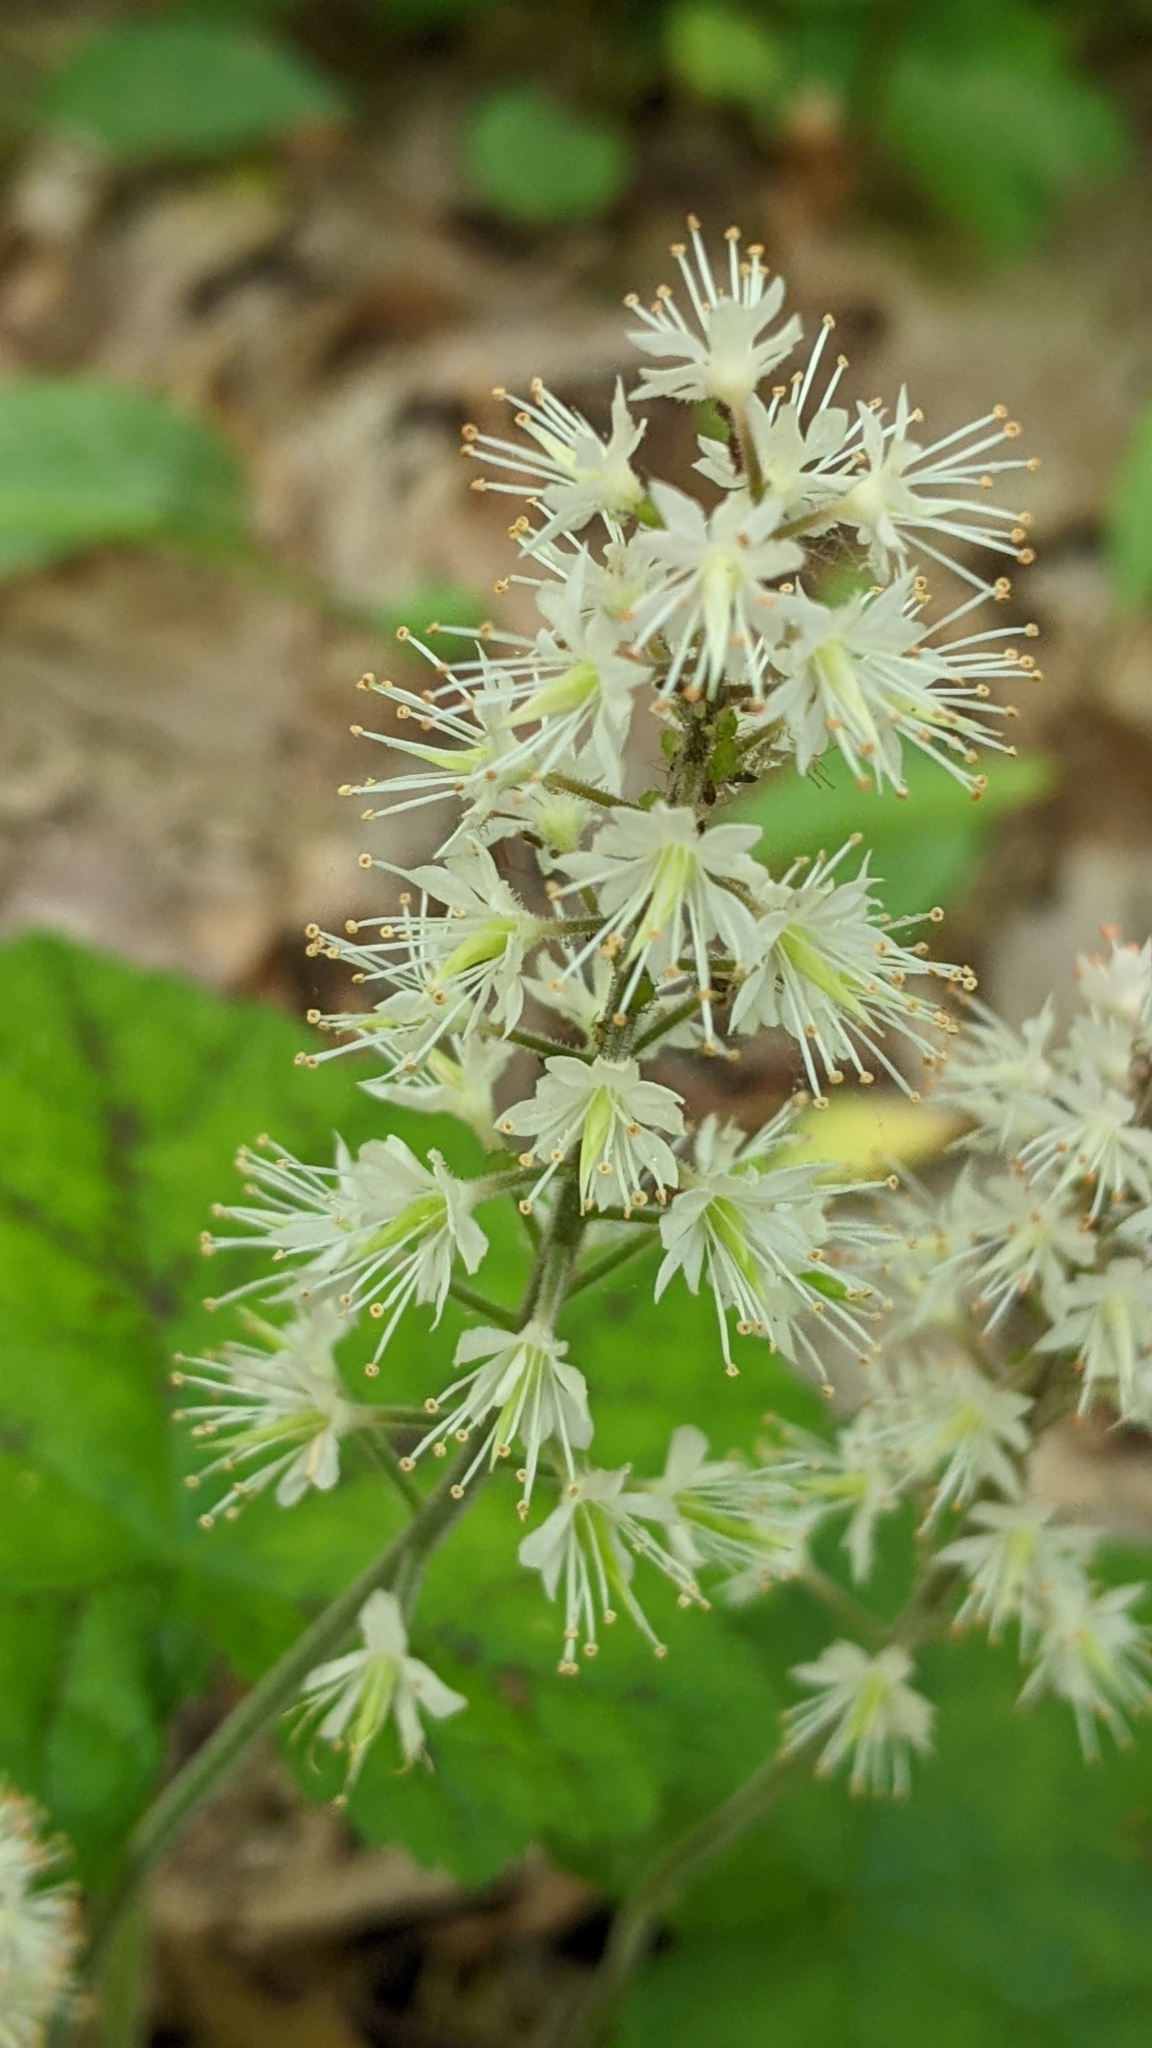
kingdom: Plantae
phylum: Tracheophyta
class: Magnoliopsida
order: Saxifragales
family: Saxifragaceae
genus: Tiarella
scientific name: Tiarella stolonifera
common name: Stoloniferous foamflower
